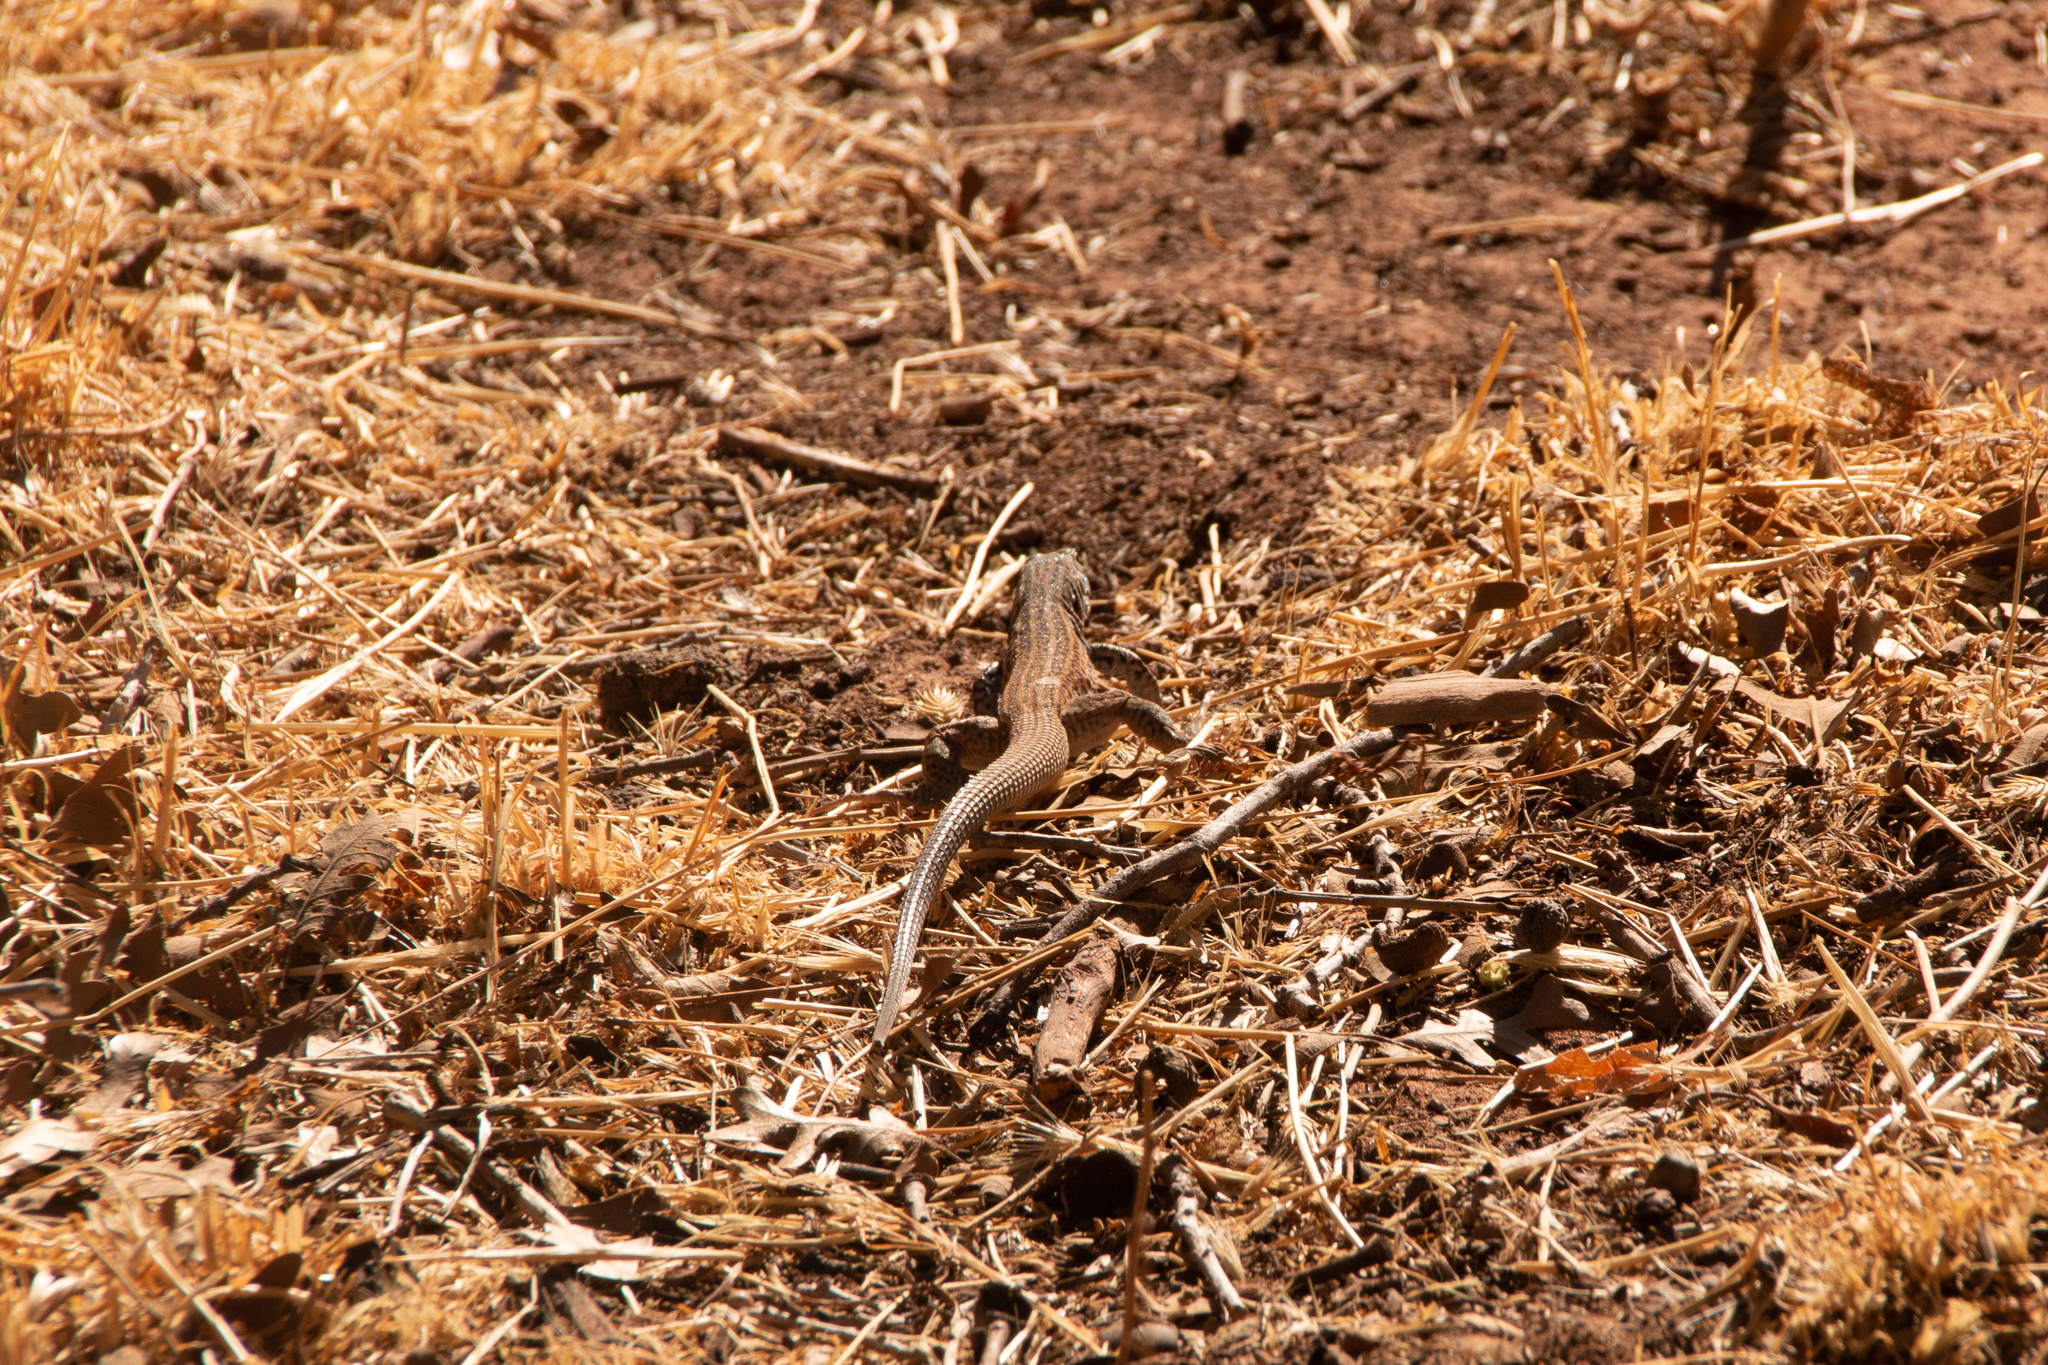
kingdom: Animalia
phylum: Chordata
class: Squamata
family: Teiidae
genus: Aspidoscelis
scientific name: Aspidoscelis tigris
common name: Tiger whiptail
